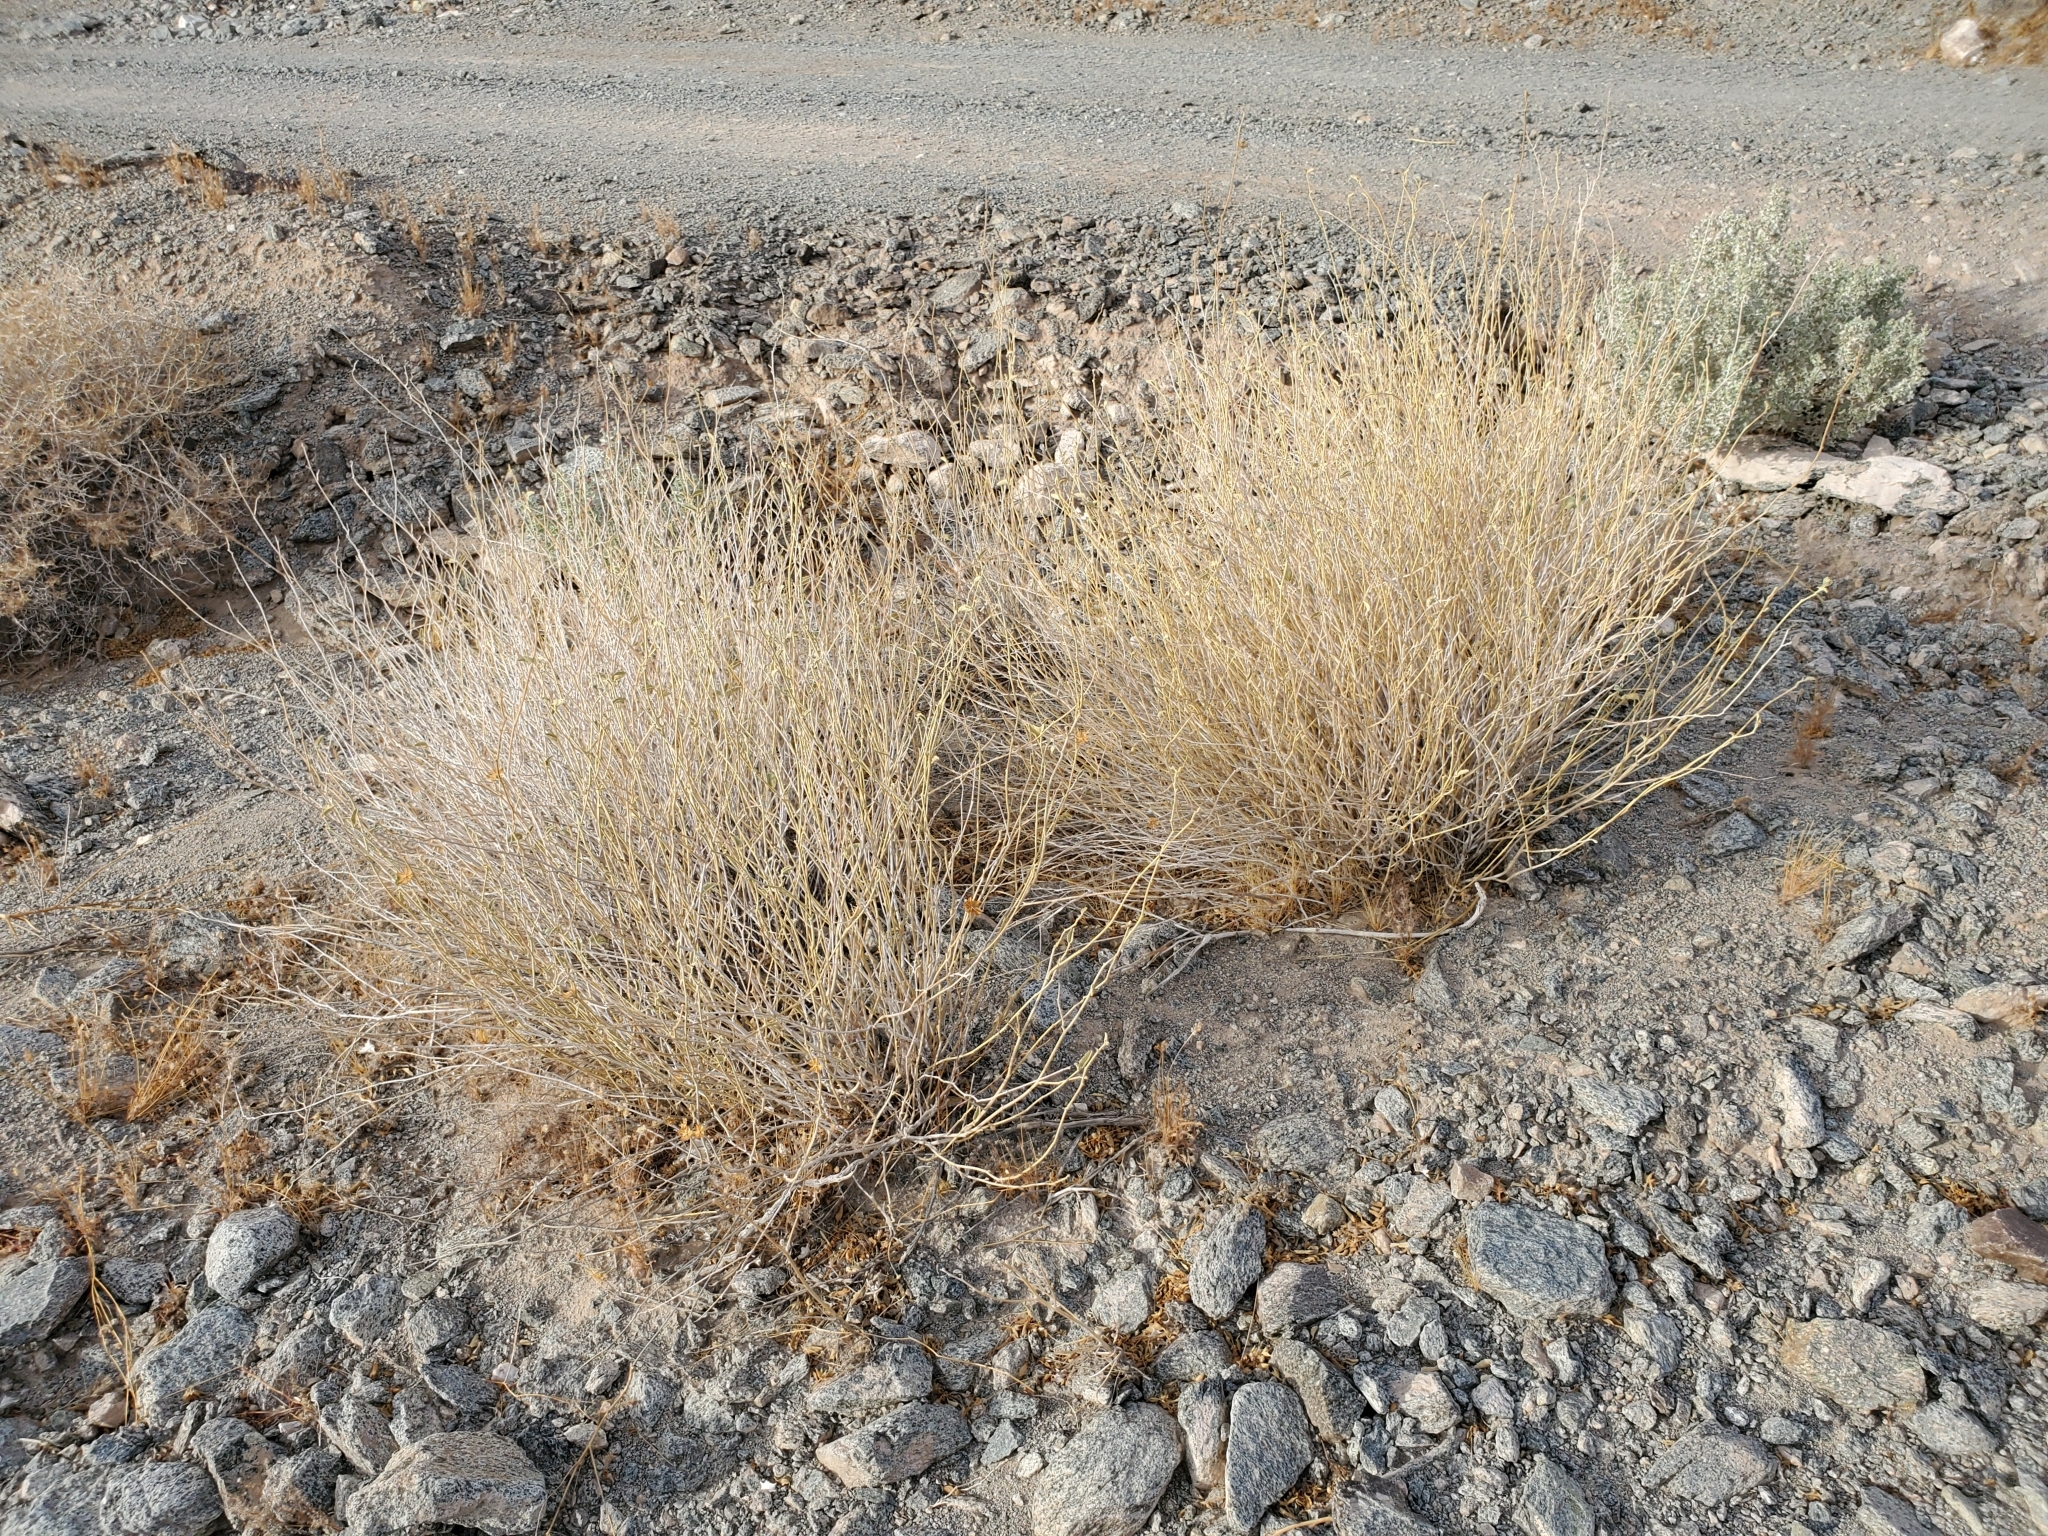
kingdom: Plantae
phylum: Tracheophyta
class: Magnoliopsida
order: Malvales
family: Malvaceae
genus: Hibiscus
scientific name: Hibiscus denudatus
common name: Paleface
